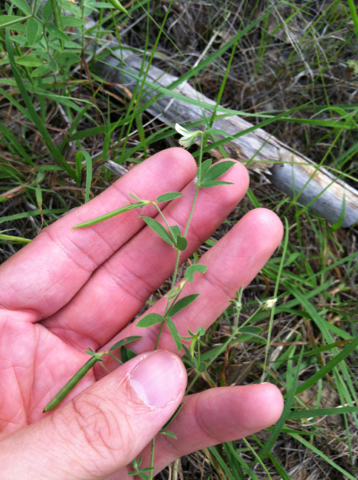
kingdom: Plantae
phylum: Tracheophyta
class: Magnoliopsida
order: Fabales
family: Fabaceae
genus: Acmispon
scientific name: Acmispon americanus
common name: American bird's-foot trefoil
